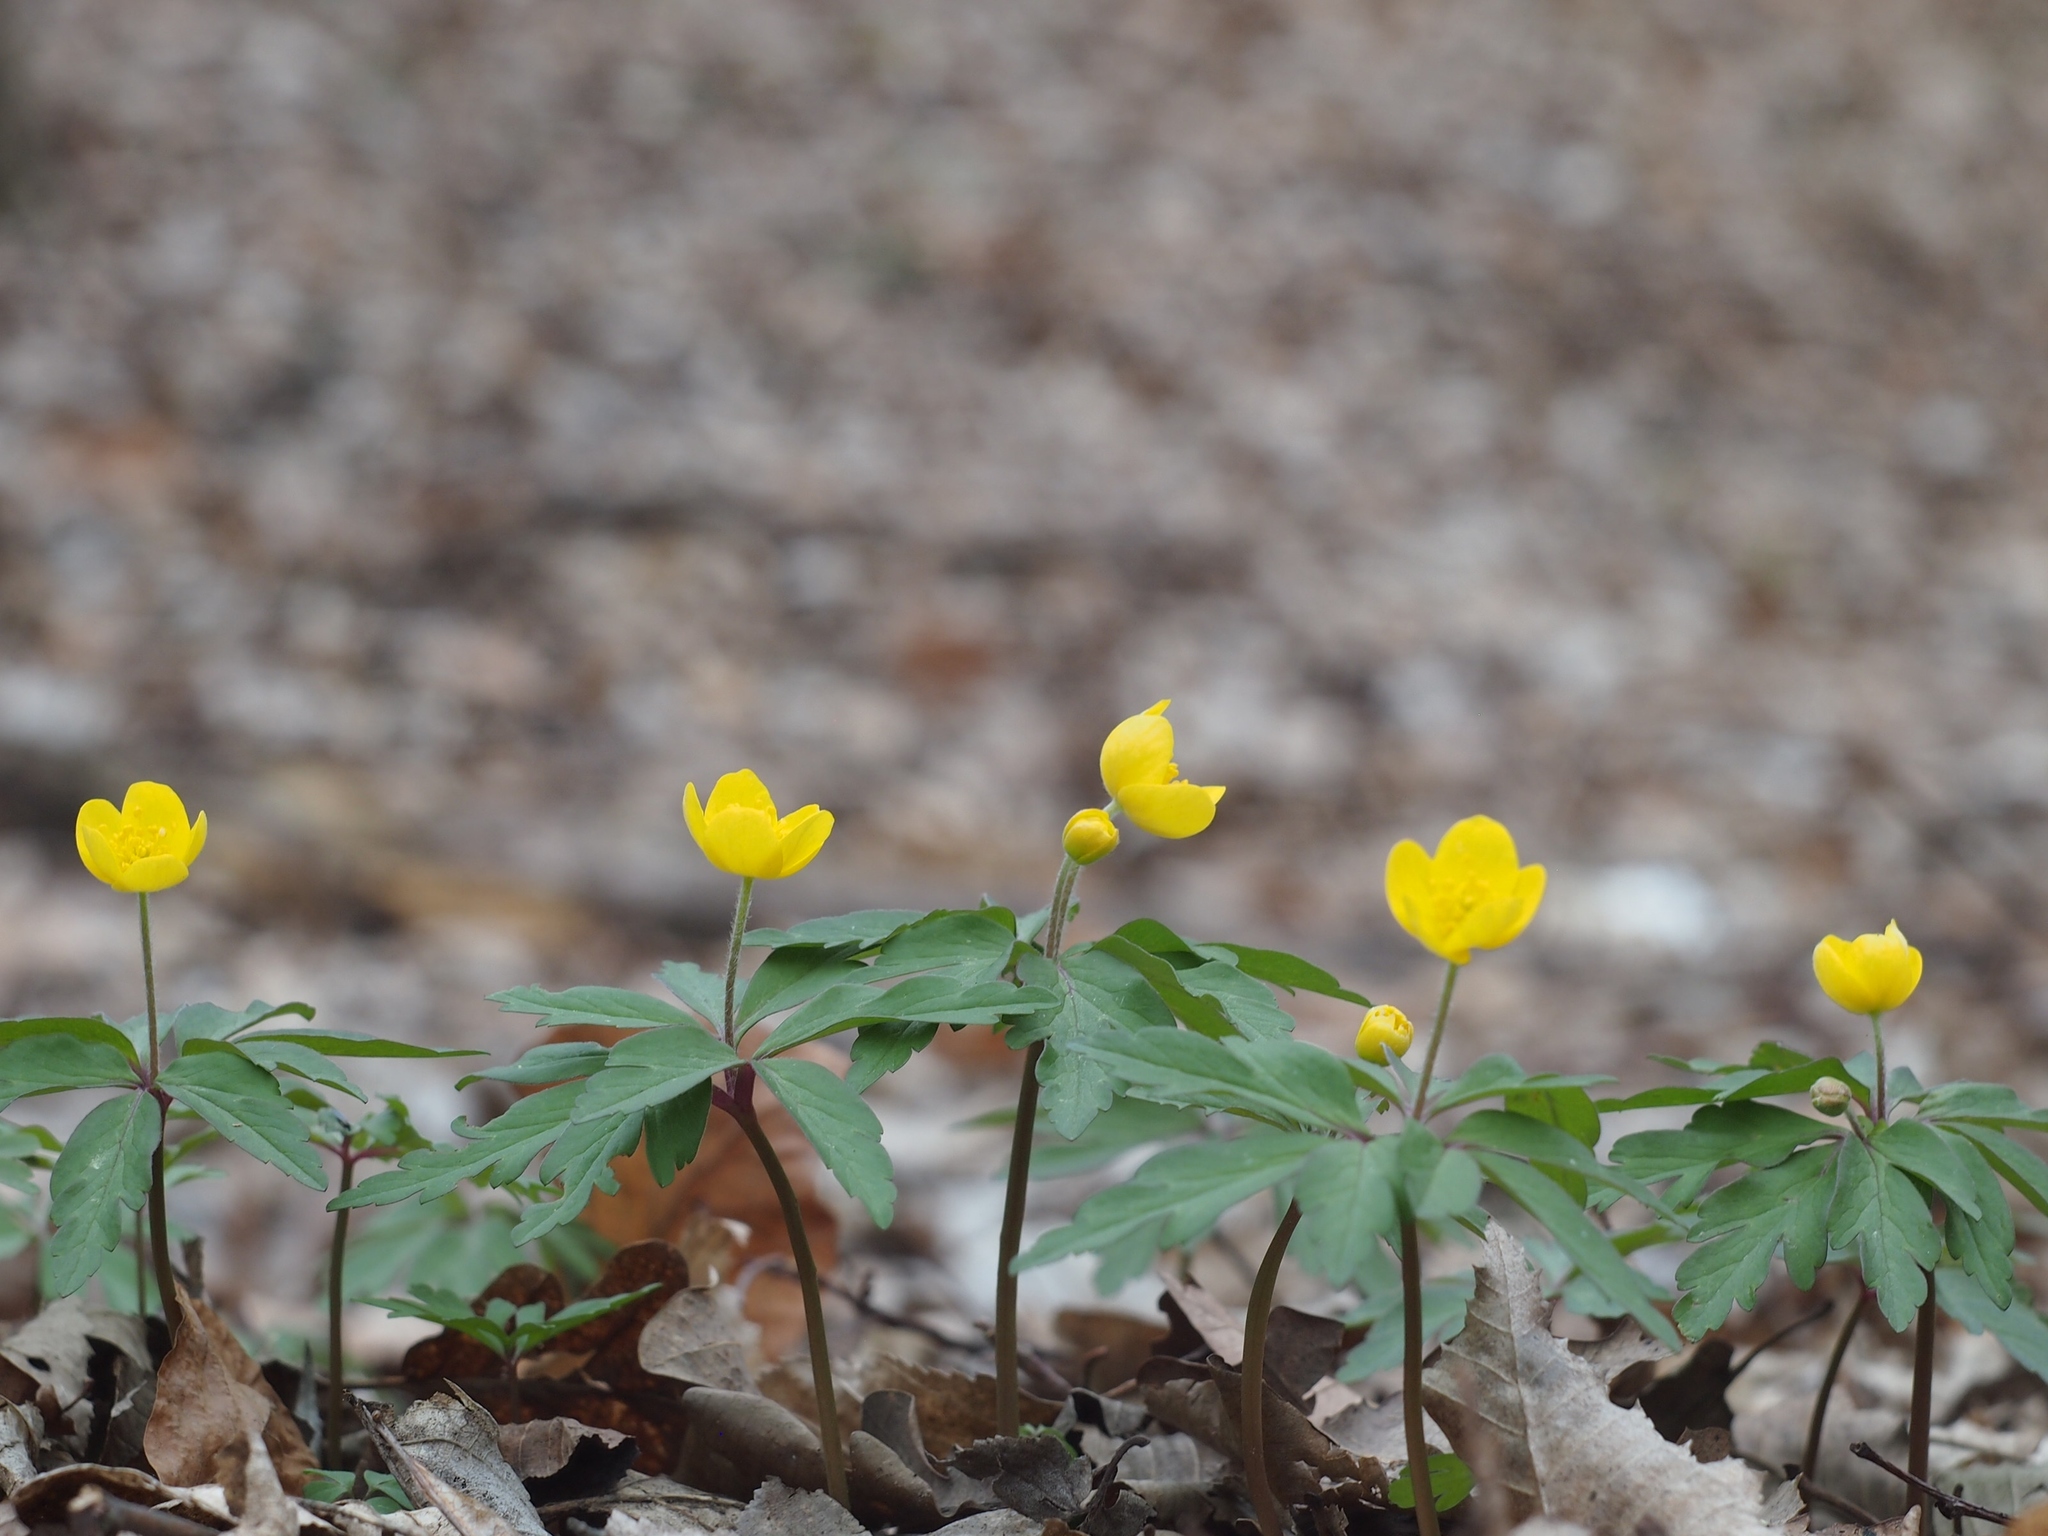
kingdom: Plantae
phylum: Tracheophyta
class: Magnoliopsida
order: Ranunculales
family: Ranunculaceae
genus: Anemone
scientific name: Anemone ranunculoides
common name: Yellow anemone
